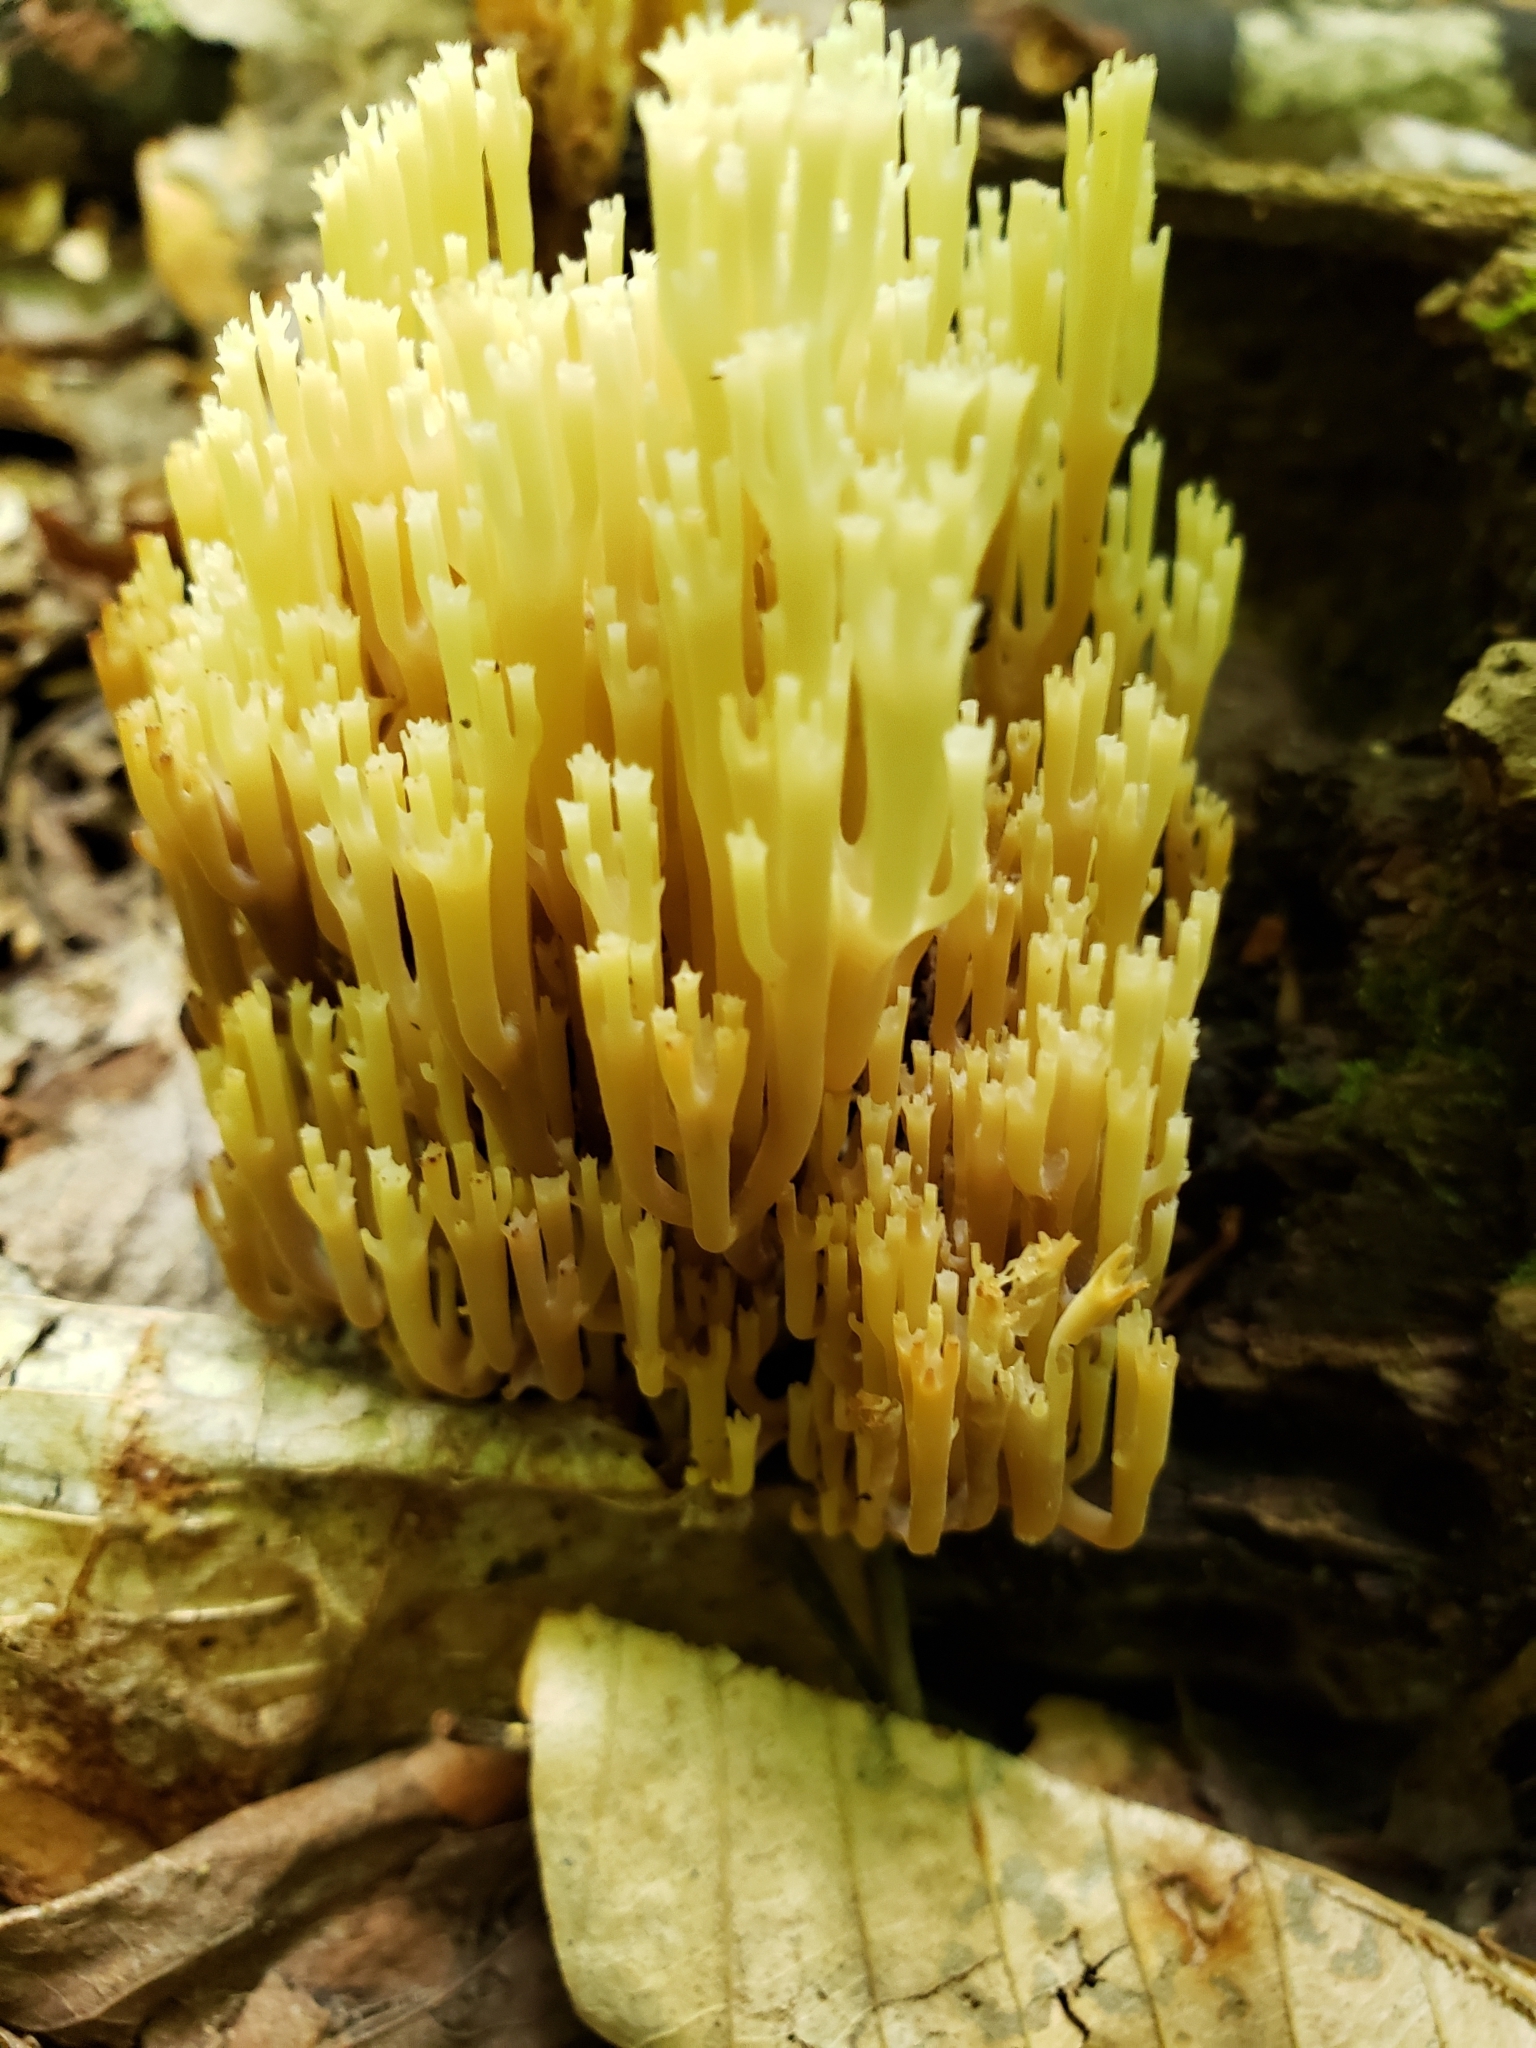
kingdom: Fungi
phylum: Basidiomycota
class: Agaricomycetes
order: Russulales
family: Auriscalpiaceae
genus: Artomyces
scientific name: Artomyces pyxidatus
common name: Crown-tipped coral fungus
